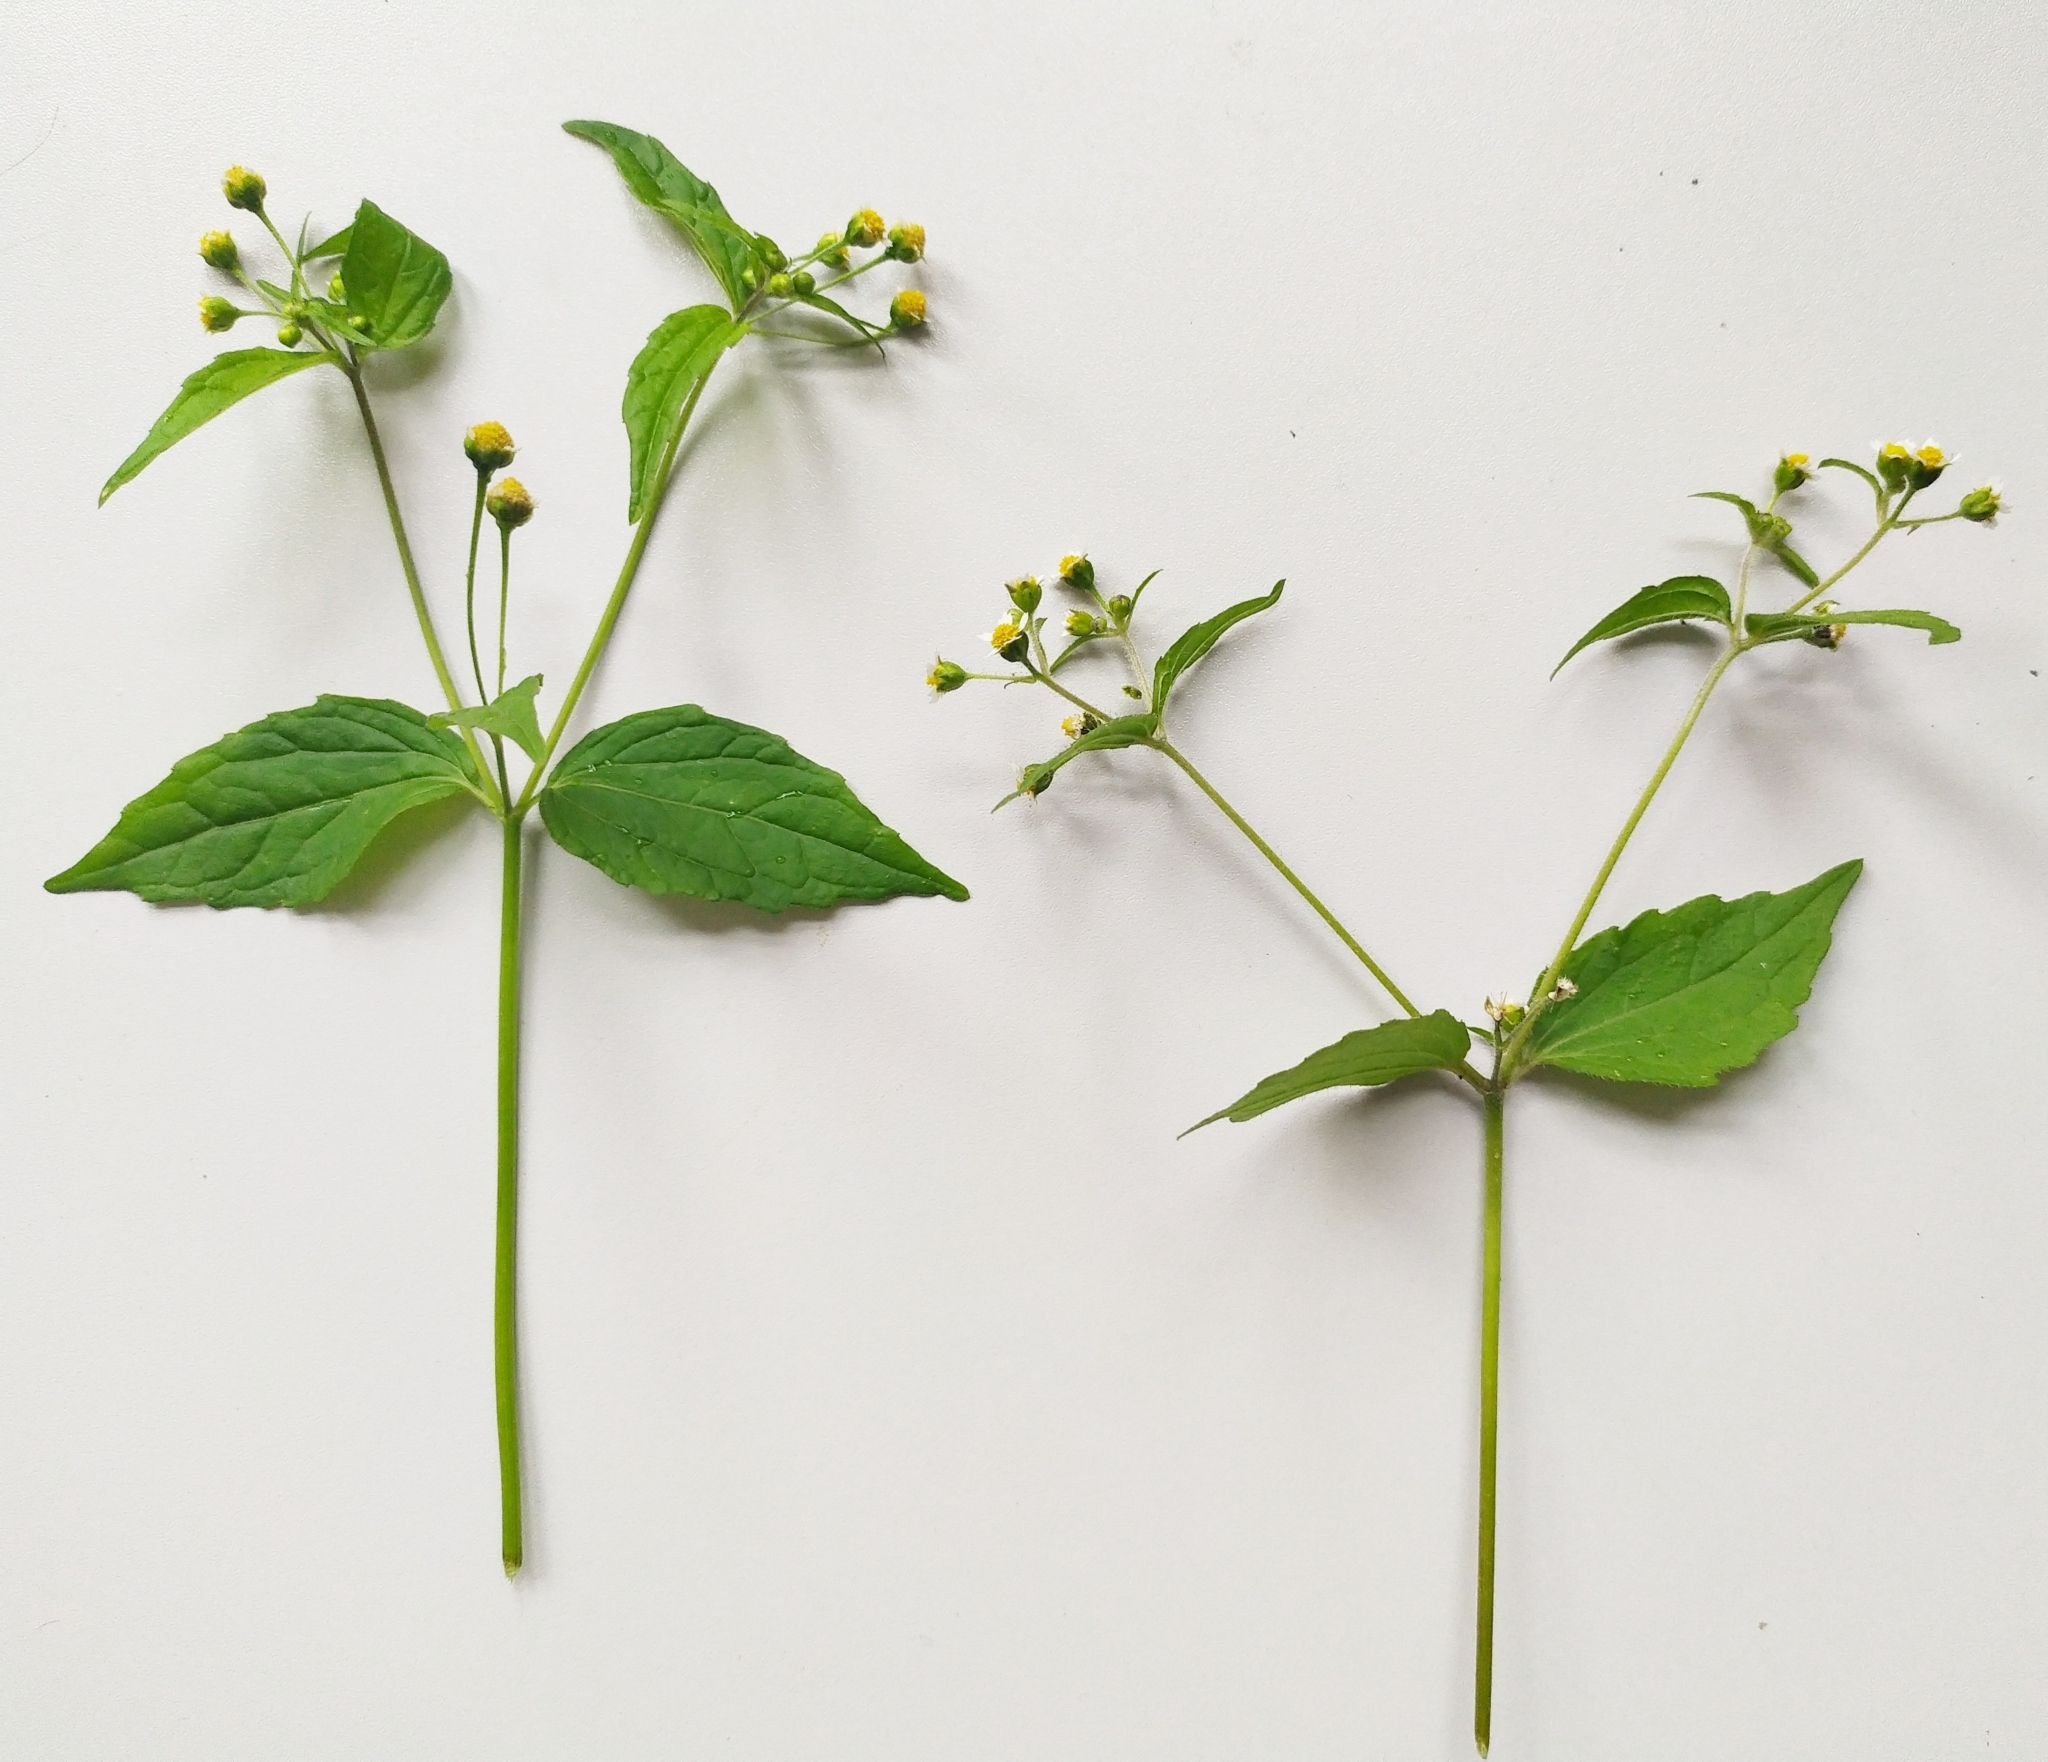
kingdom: Plantae
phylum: Tracheophyta
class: Magnoliopsida
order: Asterales
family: Asteraceae
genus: Galinsoga
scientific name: Galinsoga parviflora
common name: Gallant soldier
